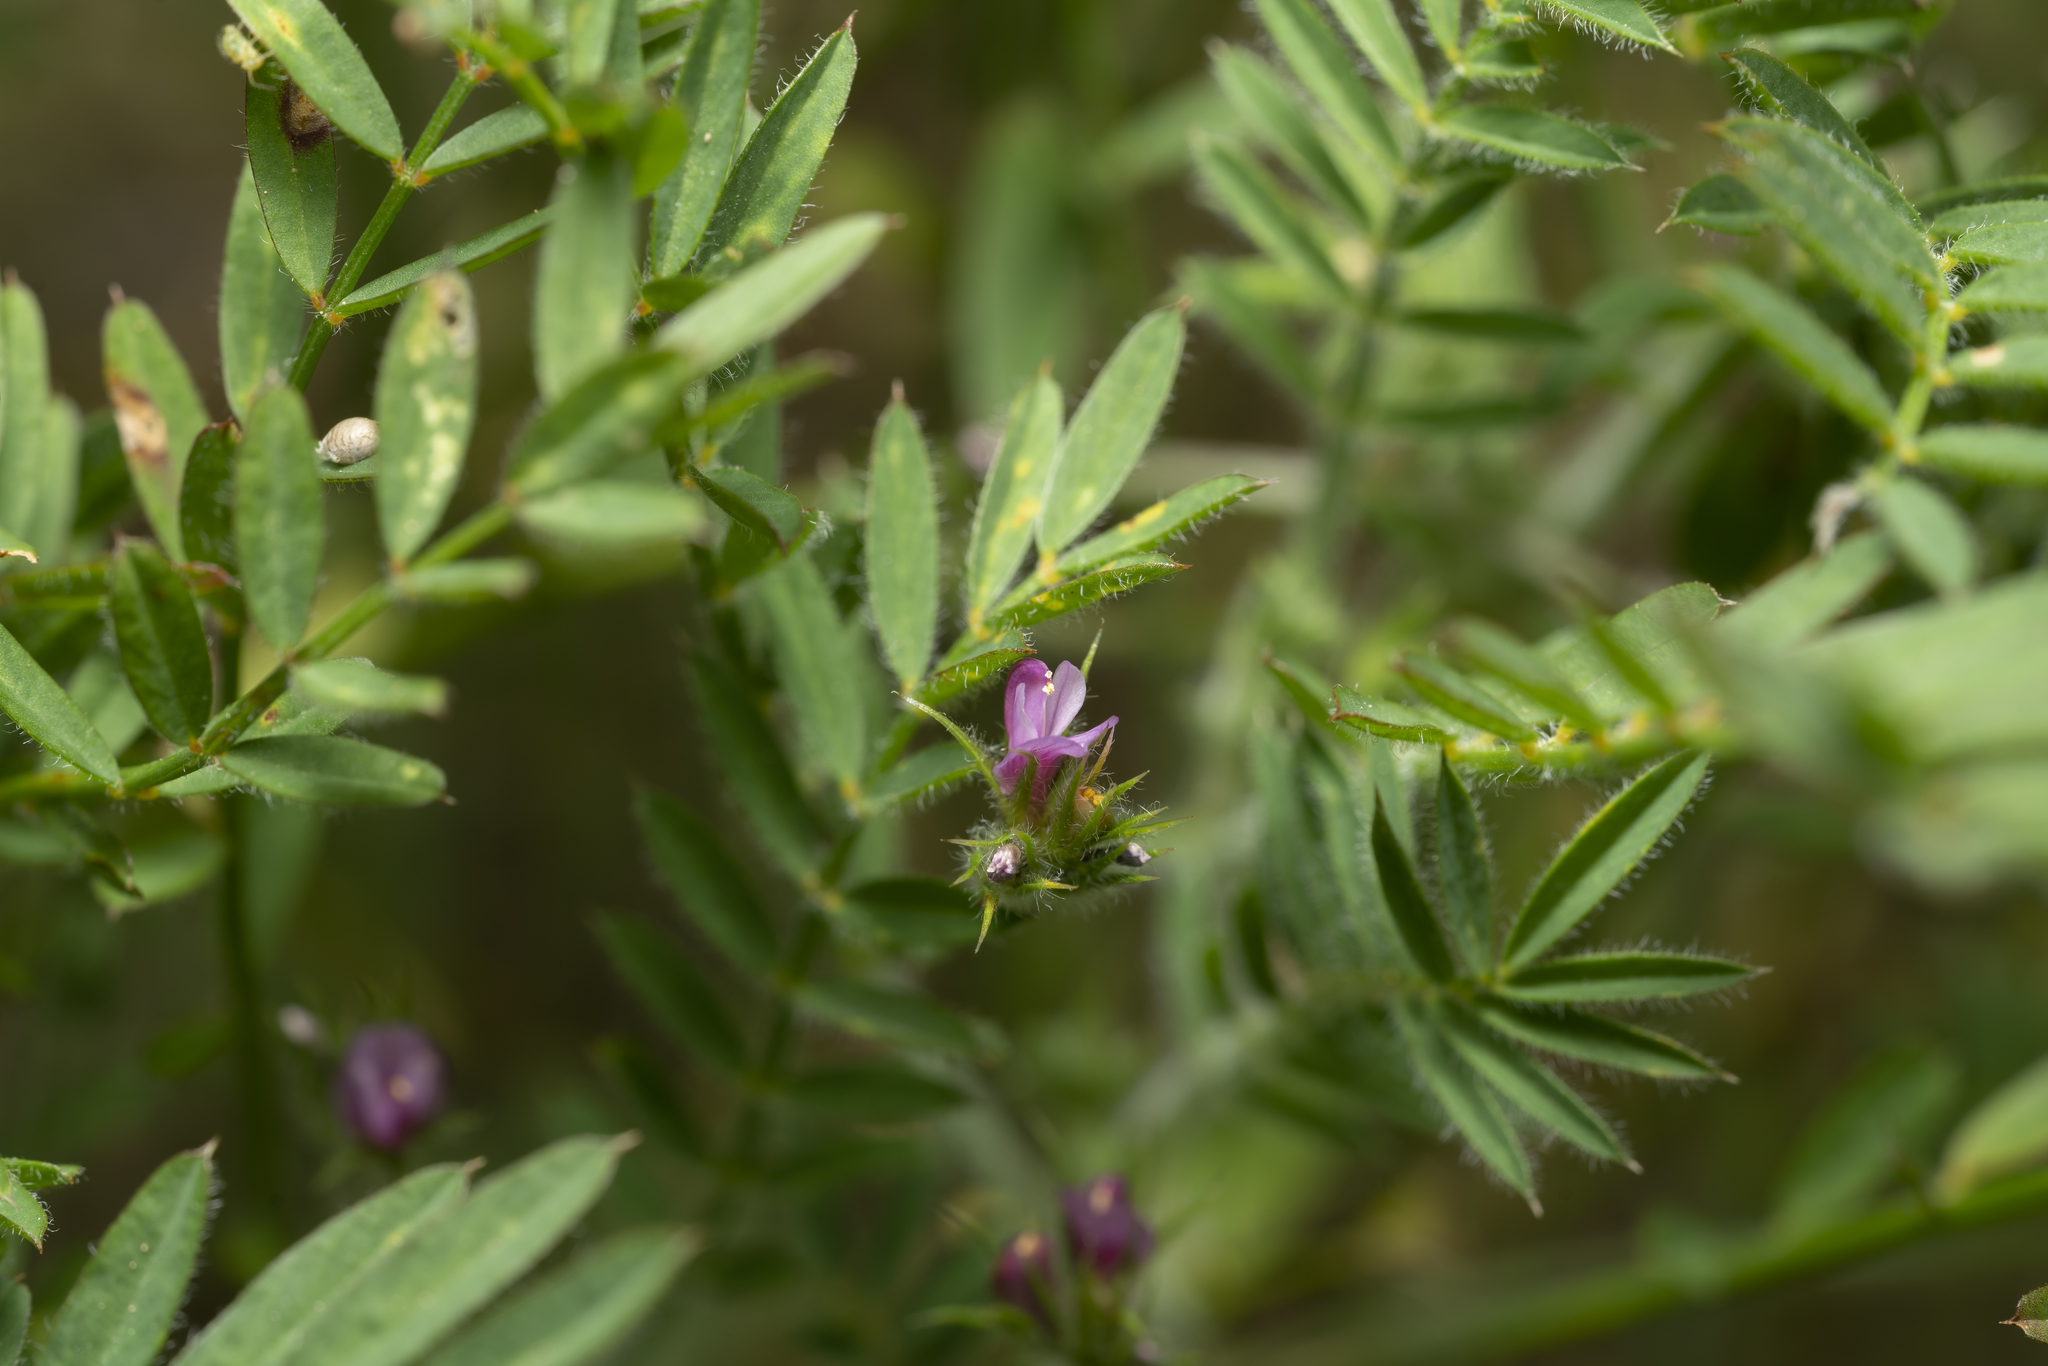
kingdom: Plantae
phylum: Tracheophyta
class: Magnoliopsida
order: Fabales
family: Fabaceae
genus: Onobrychis
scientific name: Onobrychis
